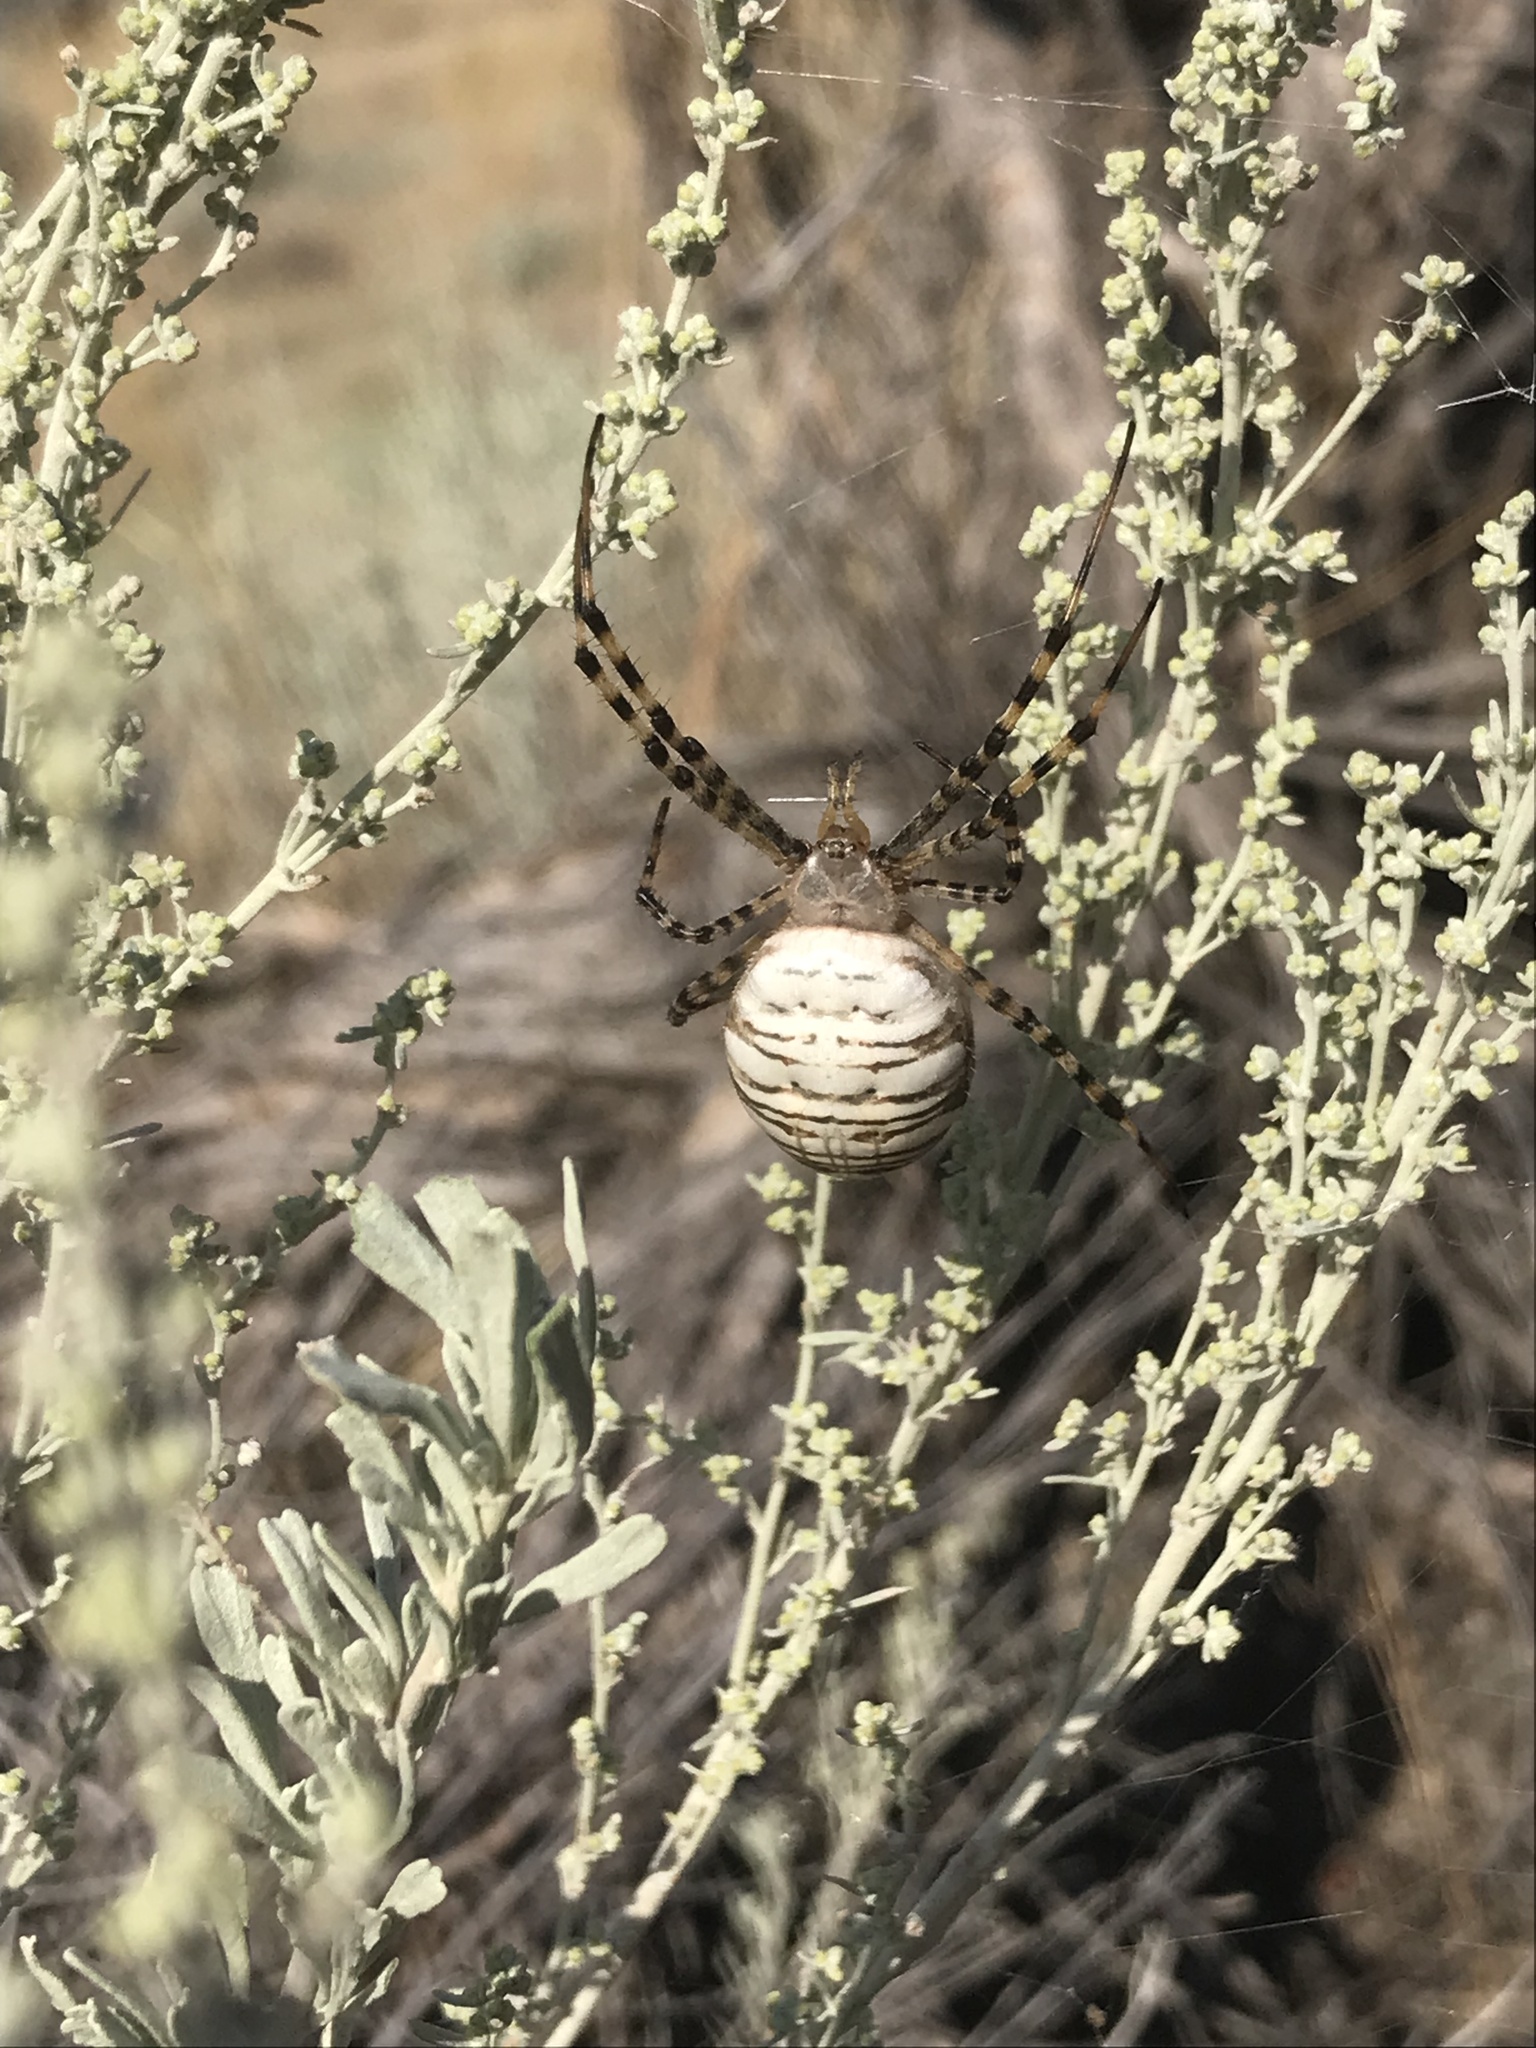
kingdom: Animalia
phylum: Arthropoda
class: Arachnida
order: Araneae
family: Araneidae
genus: Argiope
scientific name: Argiope trifasciata
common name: Banded garden spider
